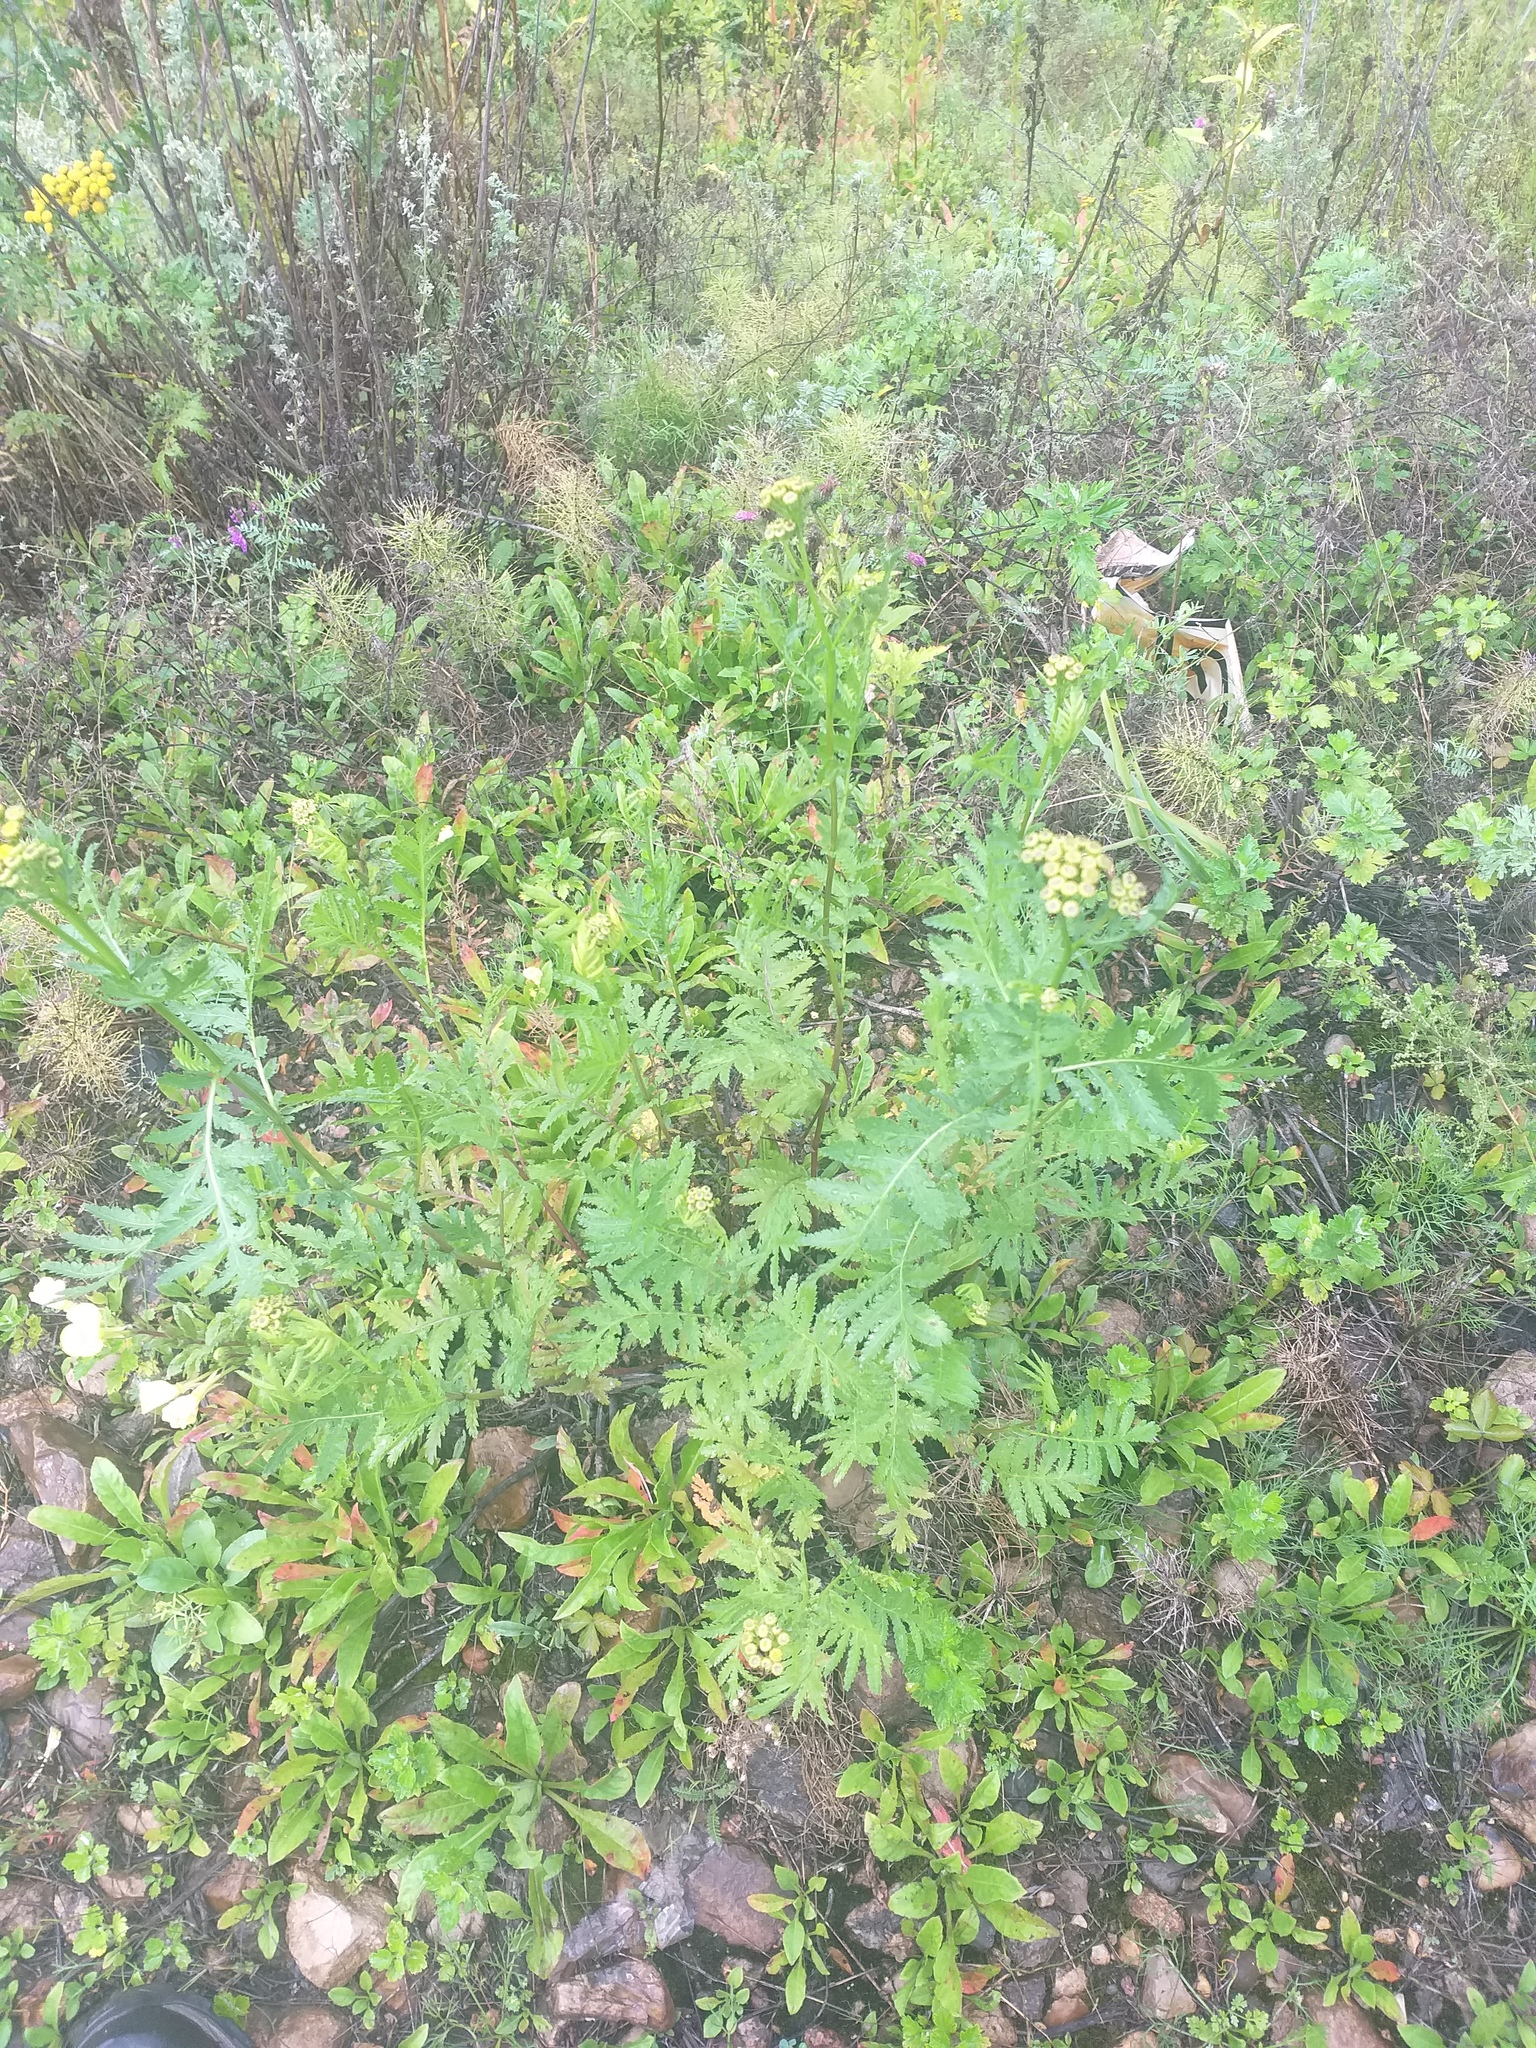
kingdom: Plantae
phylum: Tracheophyta
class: Magnoliopsida
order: Asterales
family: Asteraceae
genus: Tanacetum
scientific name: Tanacetum vulgare
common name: Common tansy
